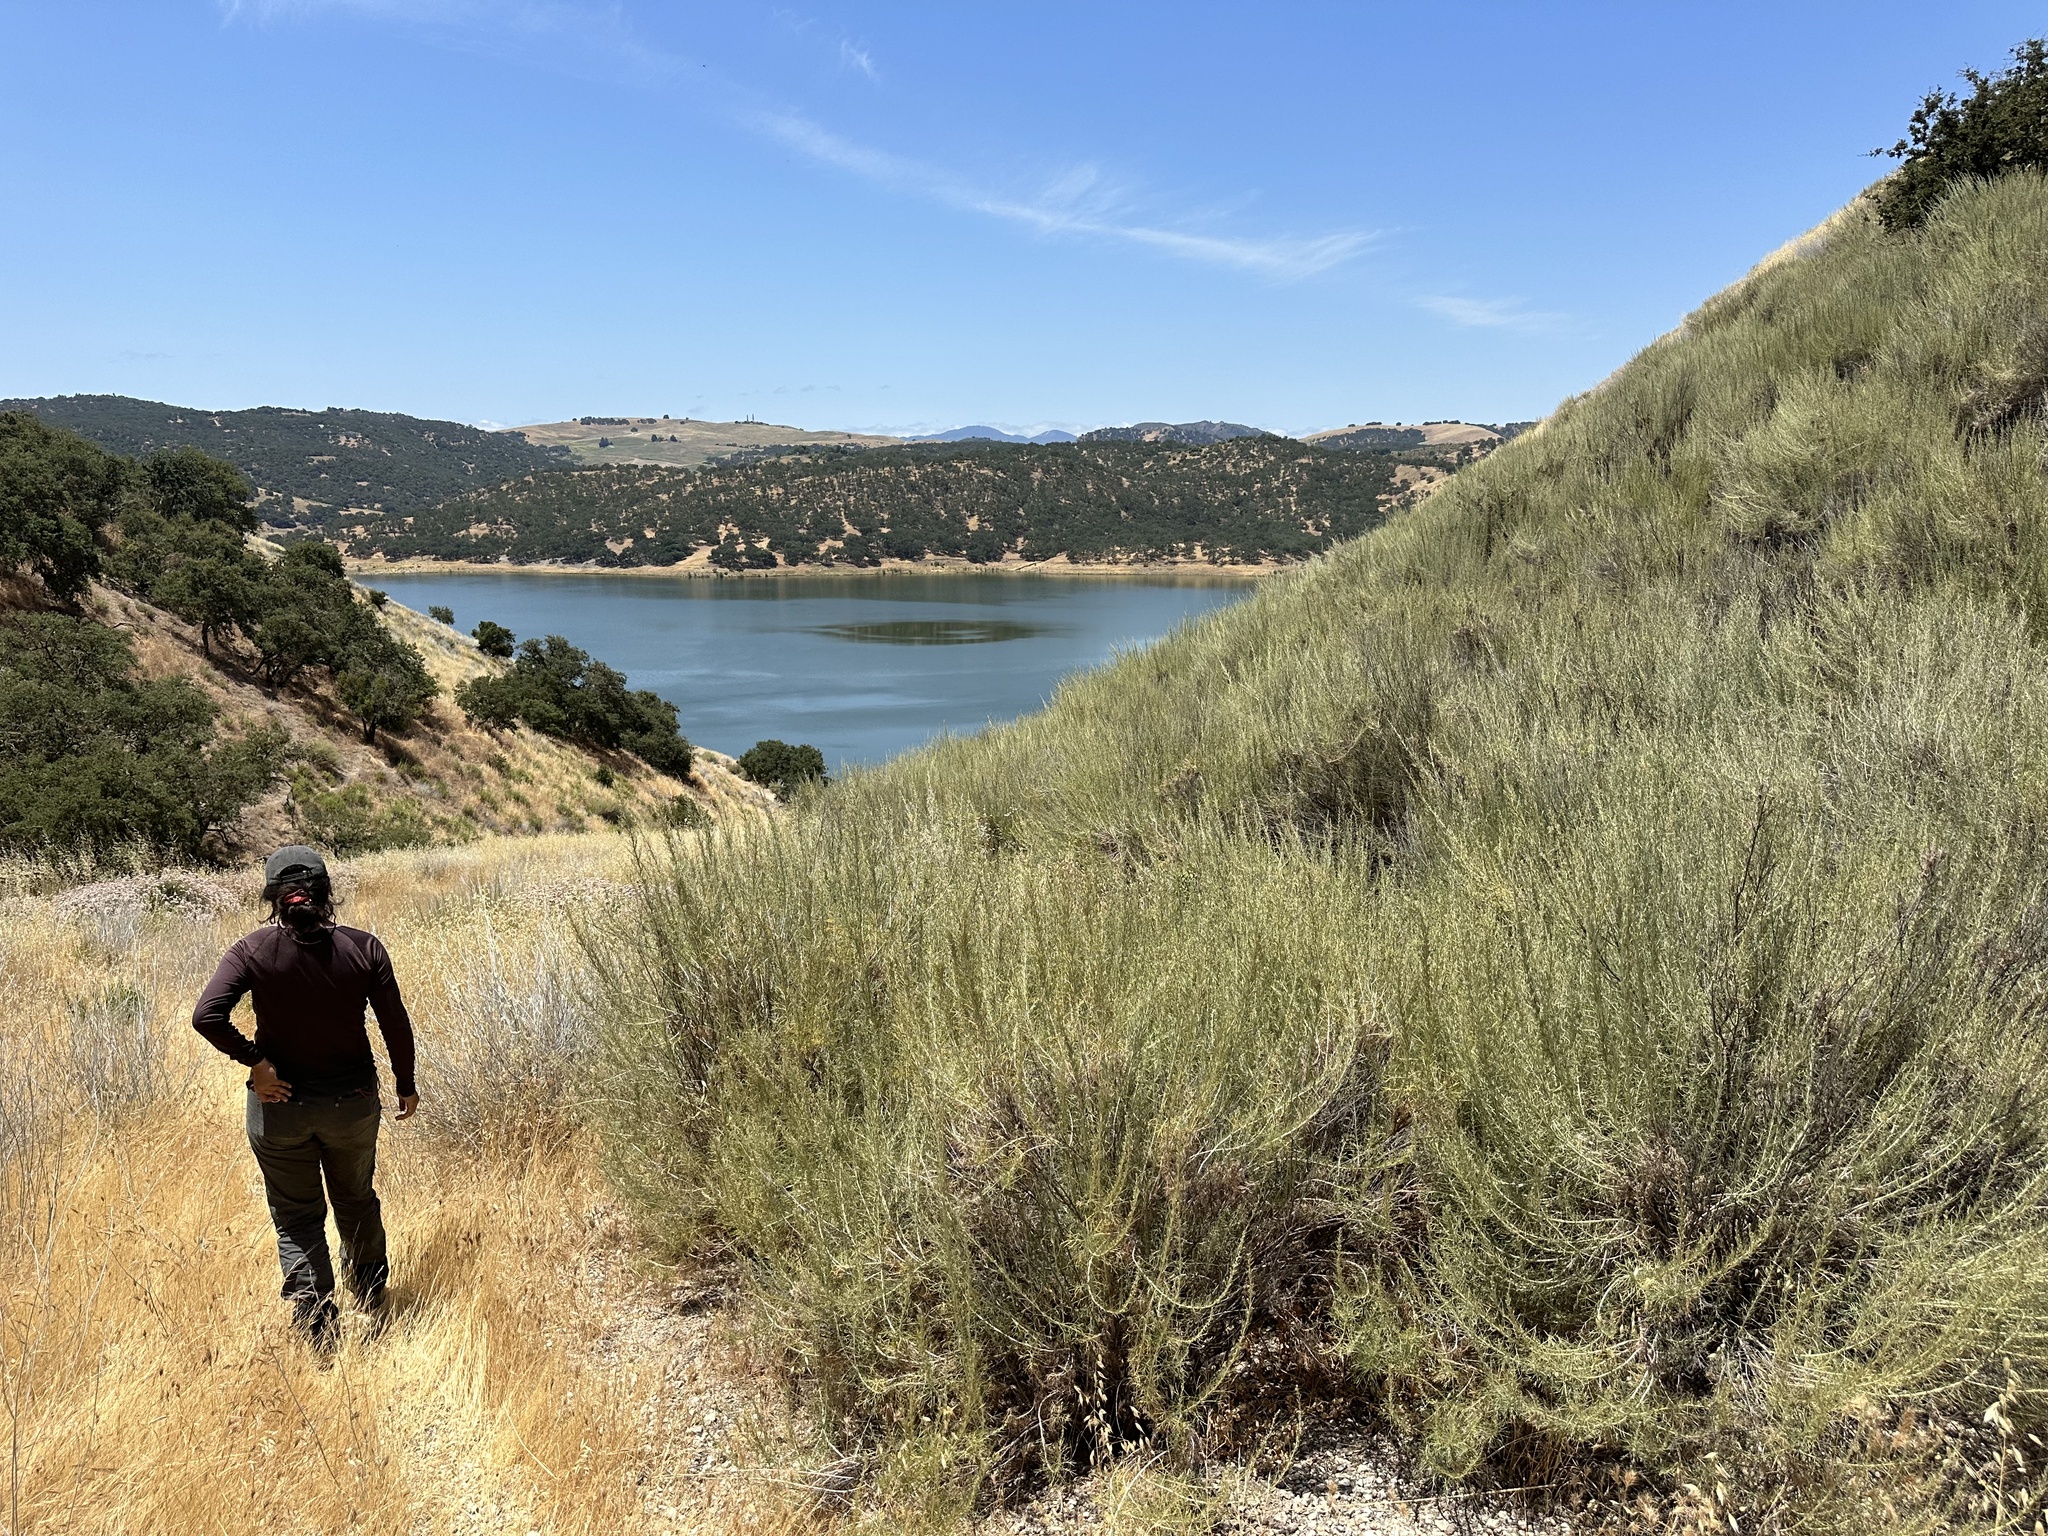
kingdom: Plantae
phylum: Tracheophyta
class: Magnoliopsida
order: Asterales
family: Asteraceae
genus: Artemisia
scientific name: Artemisia californica
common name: California sagebrush
